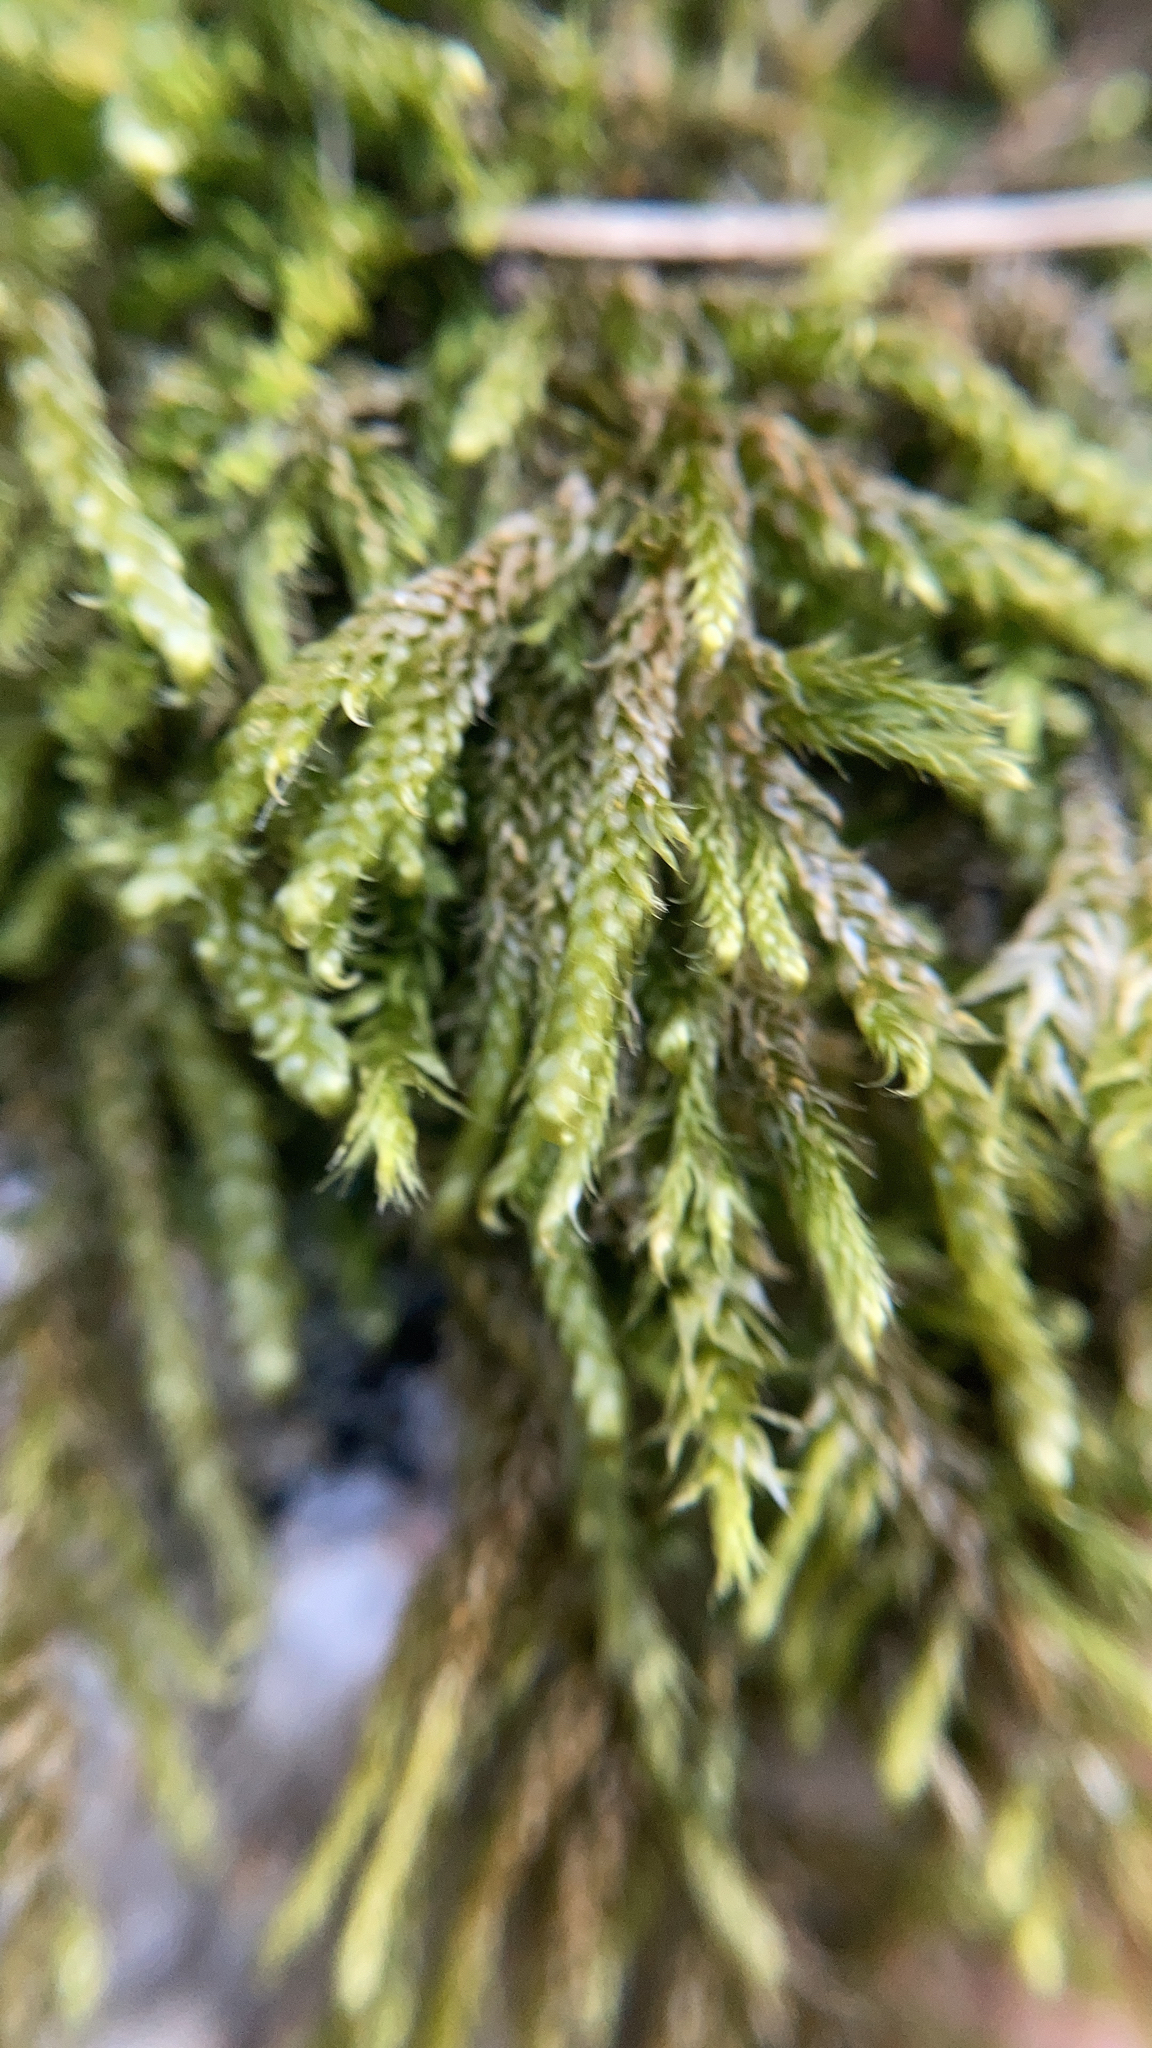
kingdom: Plantae
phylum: Bryophyta
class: Bryopsida
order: Hypnales
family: Hypnaceae
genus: Hypnum
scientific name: Hypnum cupressiforme
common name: Cypress-leaved plait-moss
